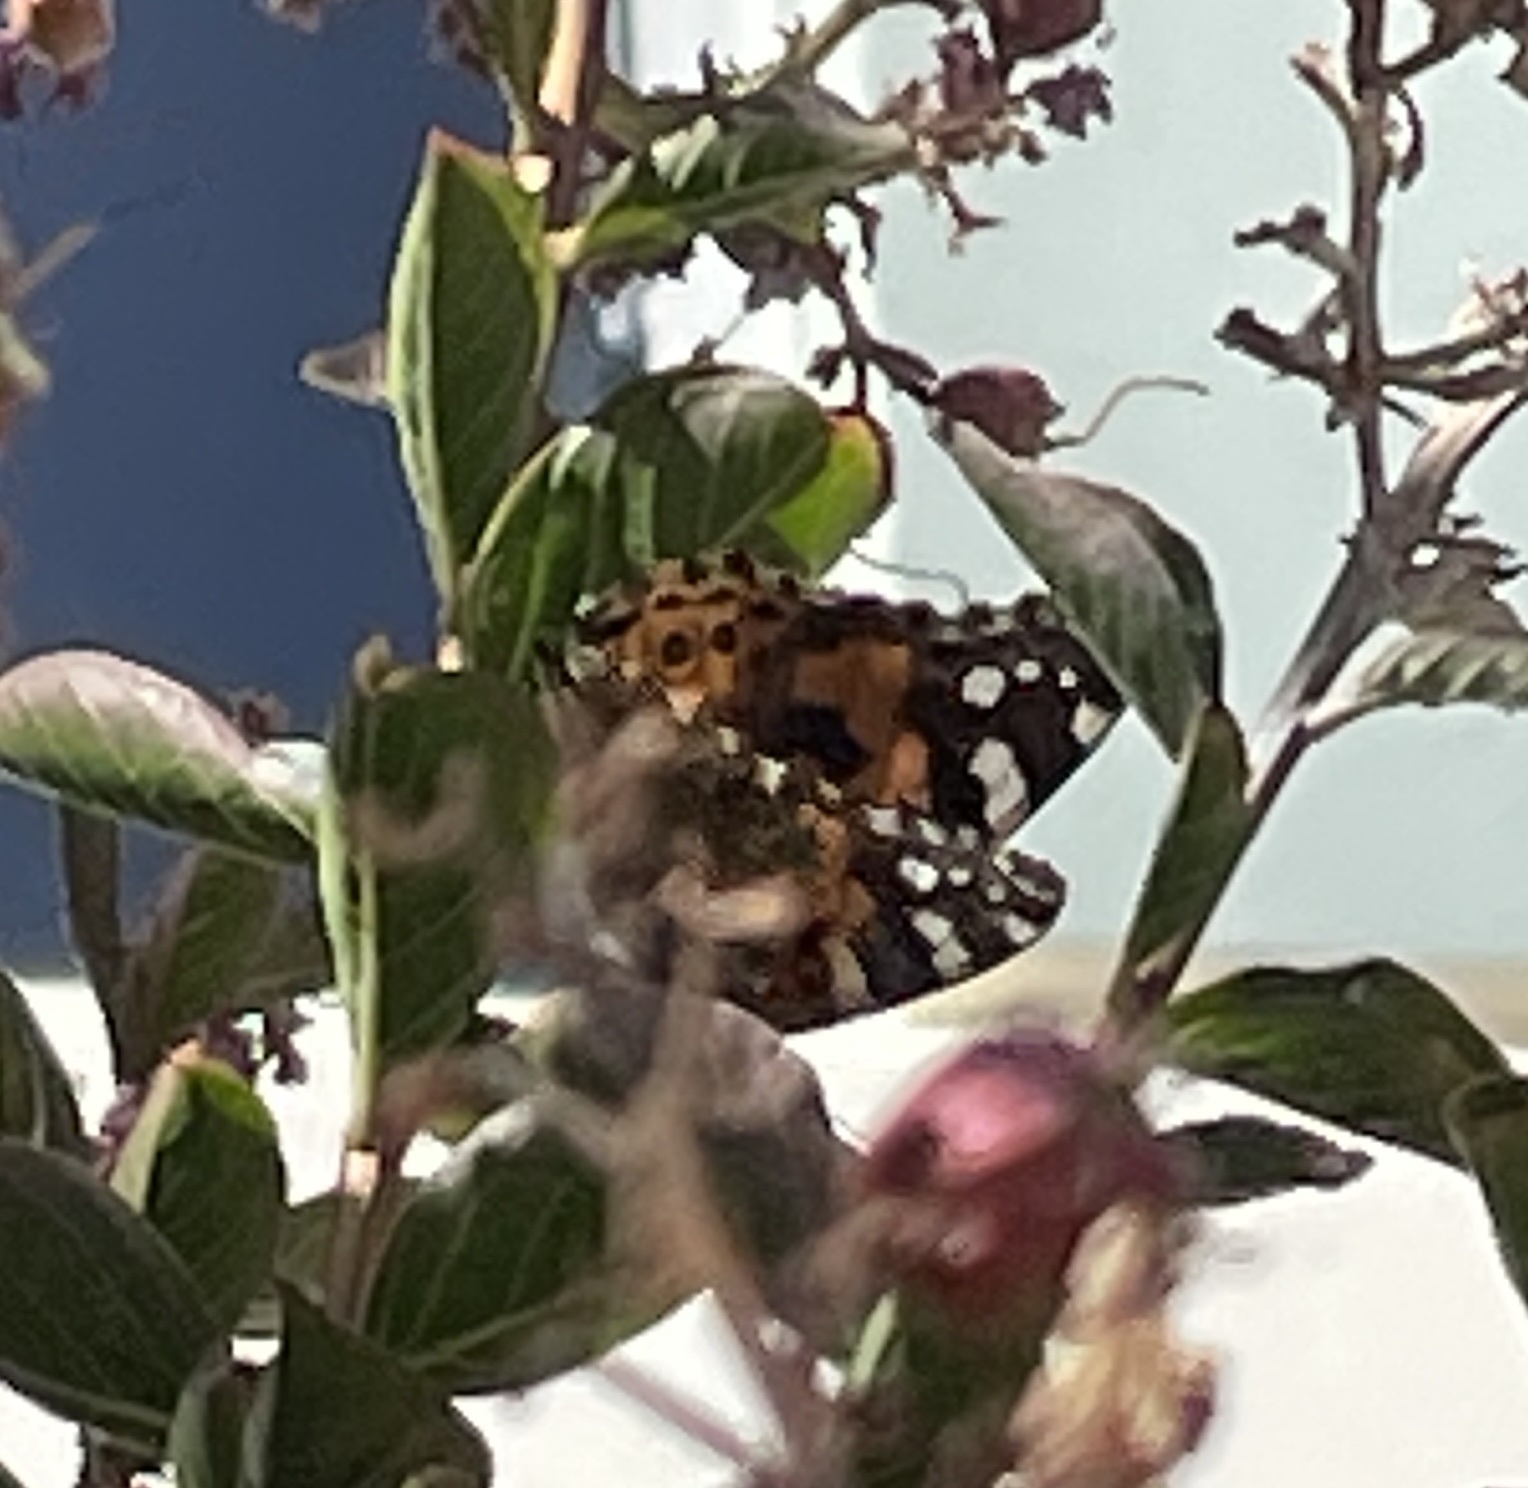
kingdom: Animalia
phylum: Arthropoda
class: Insecta
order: Lepidoptera
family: Nymphalidae
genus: Vanessa
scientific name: Vanessa cardui
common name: Painted lady
